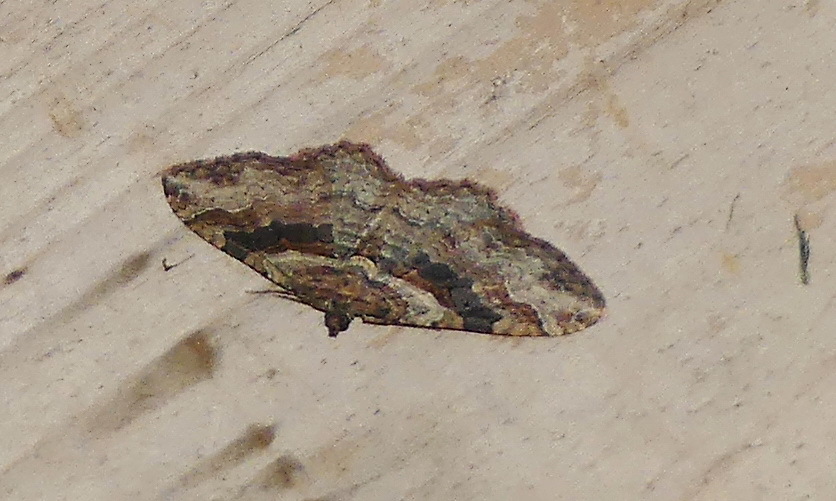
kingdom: Animalia
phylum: Arthropoda
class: Insecta
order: Lepidoptera
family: Geometridae
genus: Costaconvexa
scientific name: Costaconvexa centrostrigaria
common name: Bent-line carpet
